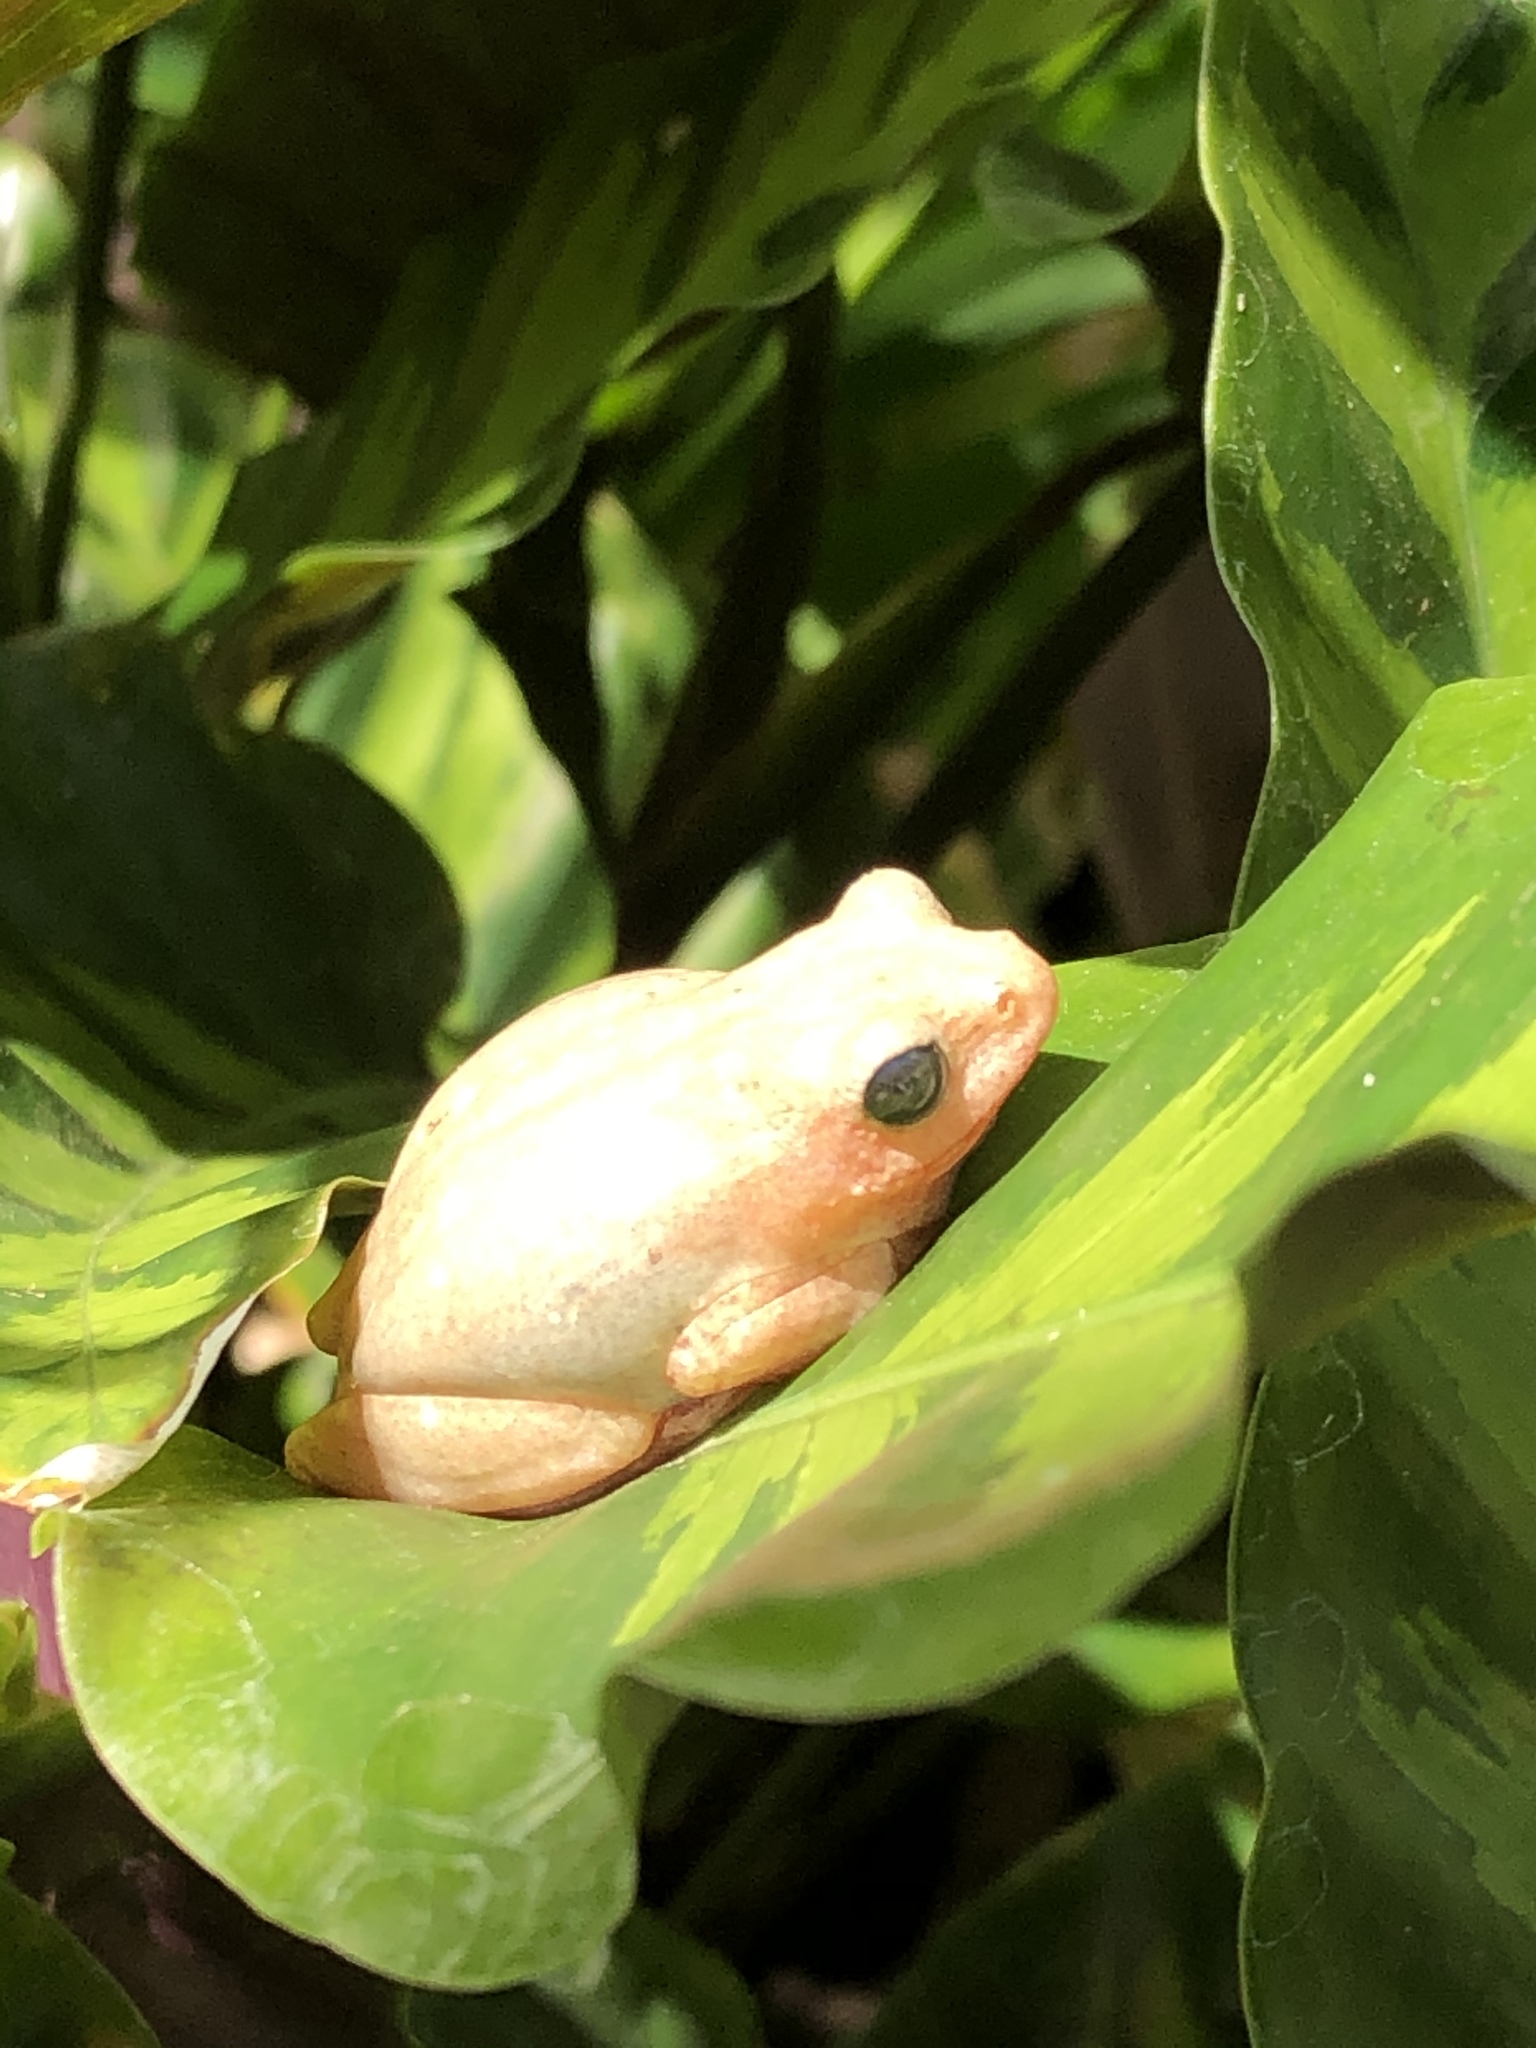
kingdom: Animalia
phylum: Chordata
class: Amphibia
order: Anura
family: Hyperoliidae
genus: Hyperolius
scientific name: Hyperolius viridiflavus
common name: Common reed frog
